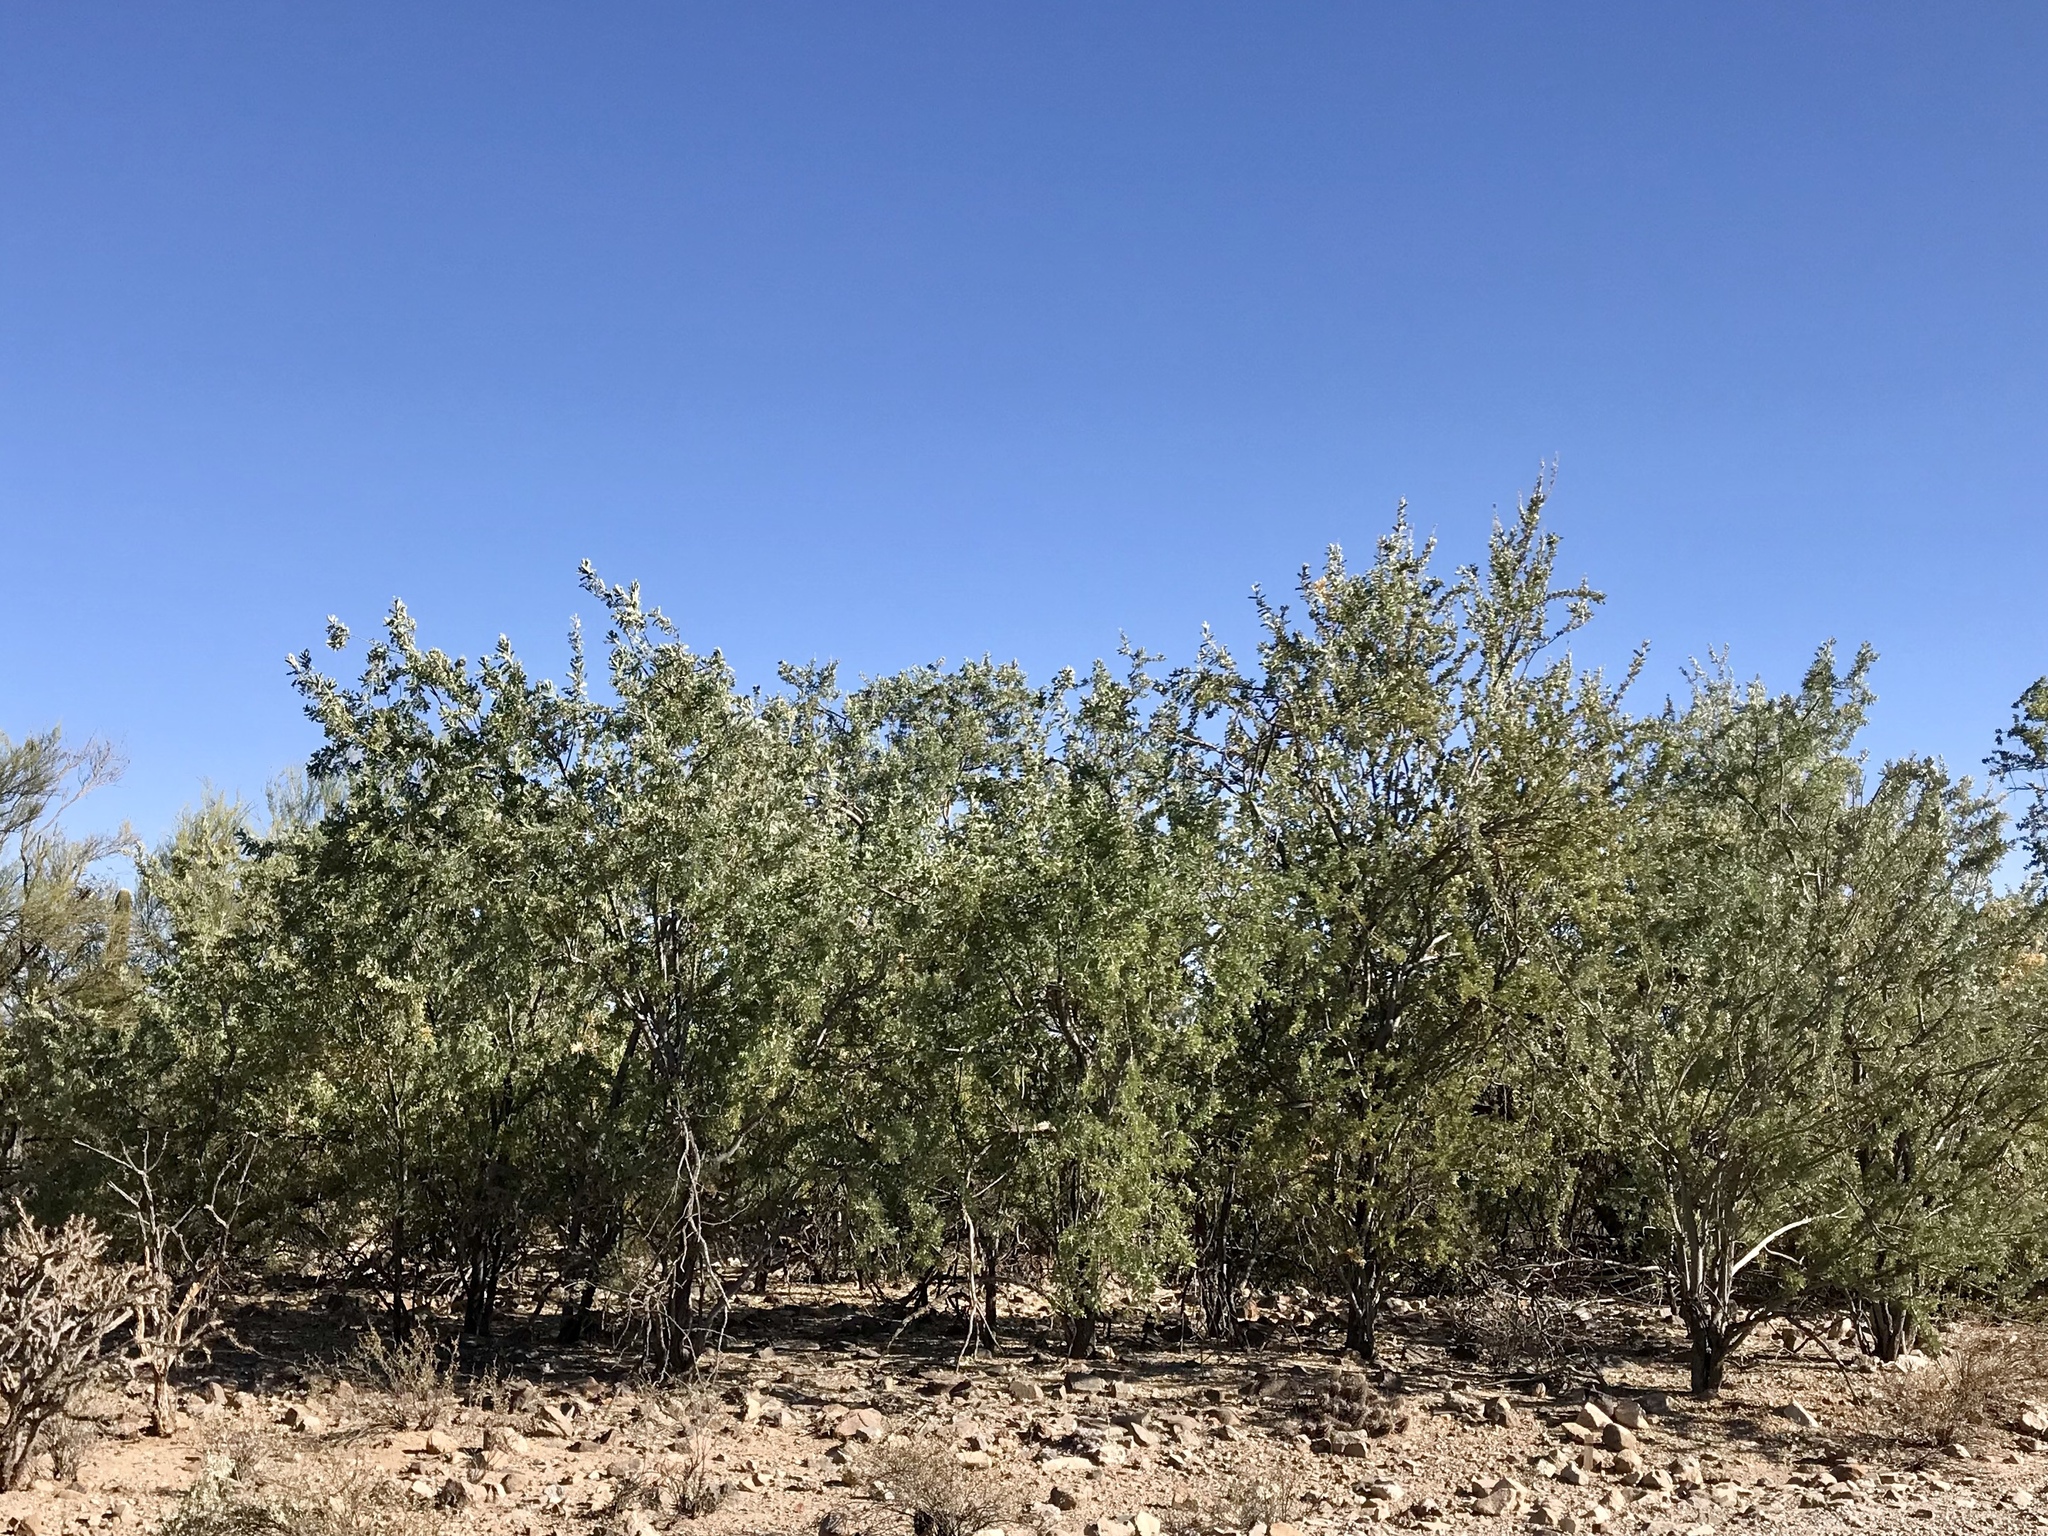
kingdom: Plantae
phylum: Tracheophyta
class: Magnoliopsida
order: Fabales
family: Fabaceae
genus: Olneya
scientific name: Olneya tesota
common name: Desert ironwood
